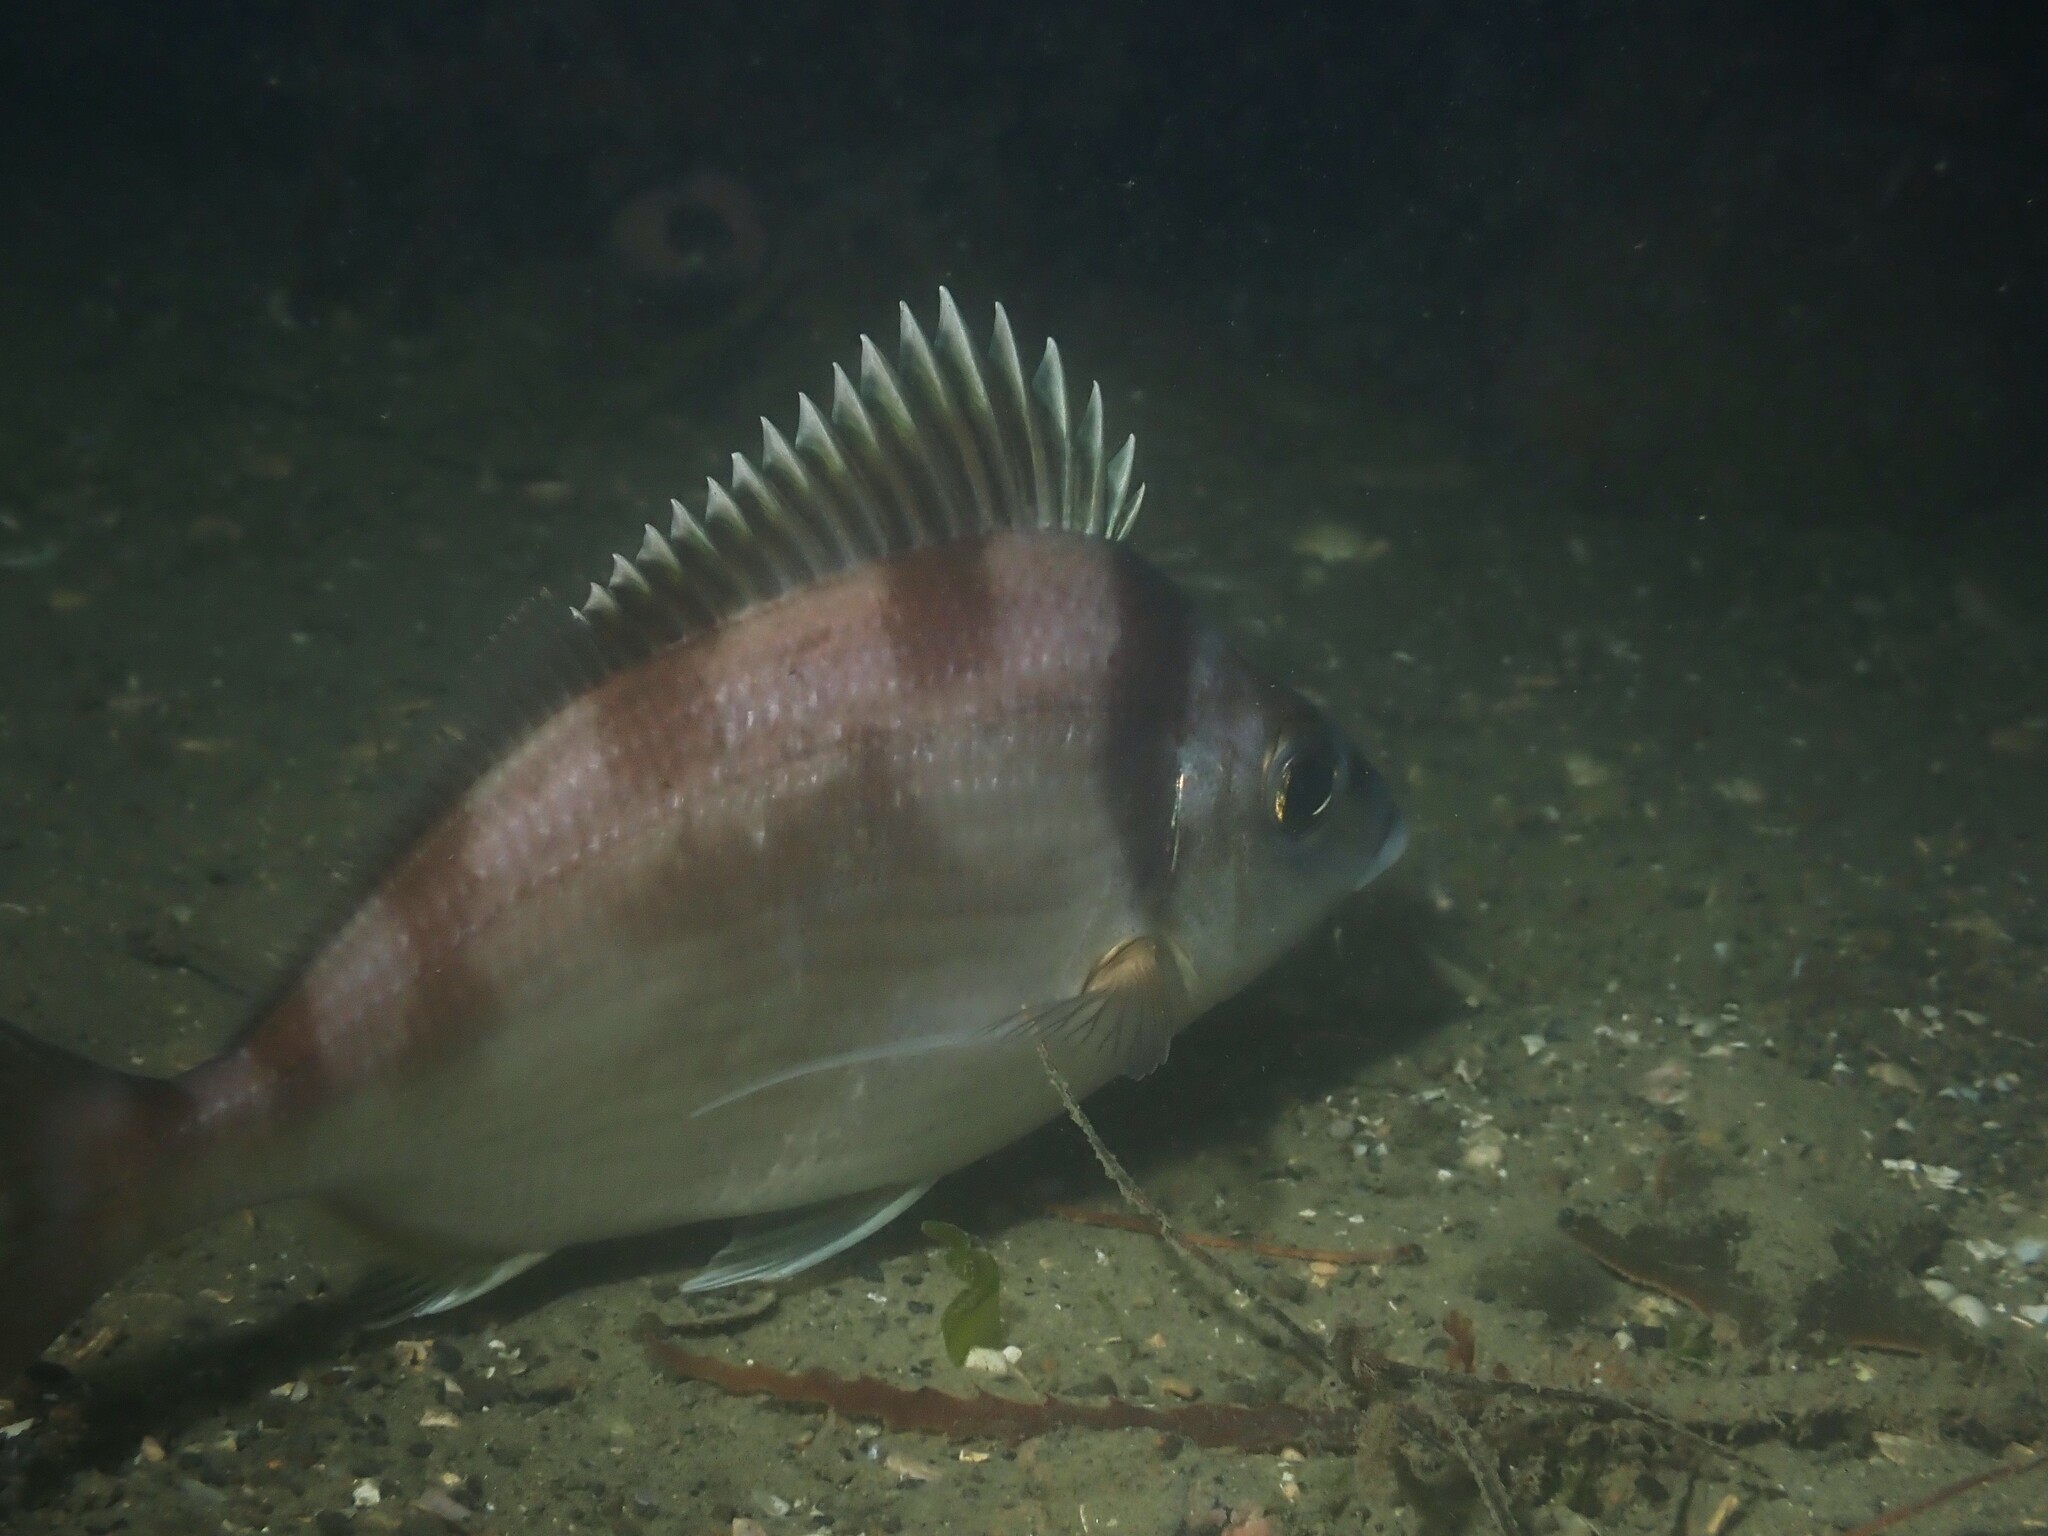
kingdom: Animalia
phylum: Chordata
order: Perciformes
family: Cheilodactylidae
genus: Nemadactylus
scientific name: Nemadactylus macropterus
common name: Tarakihi
